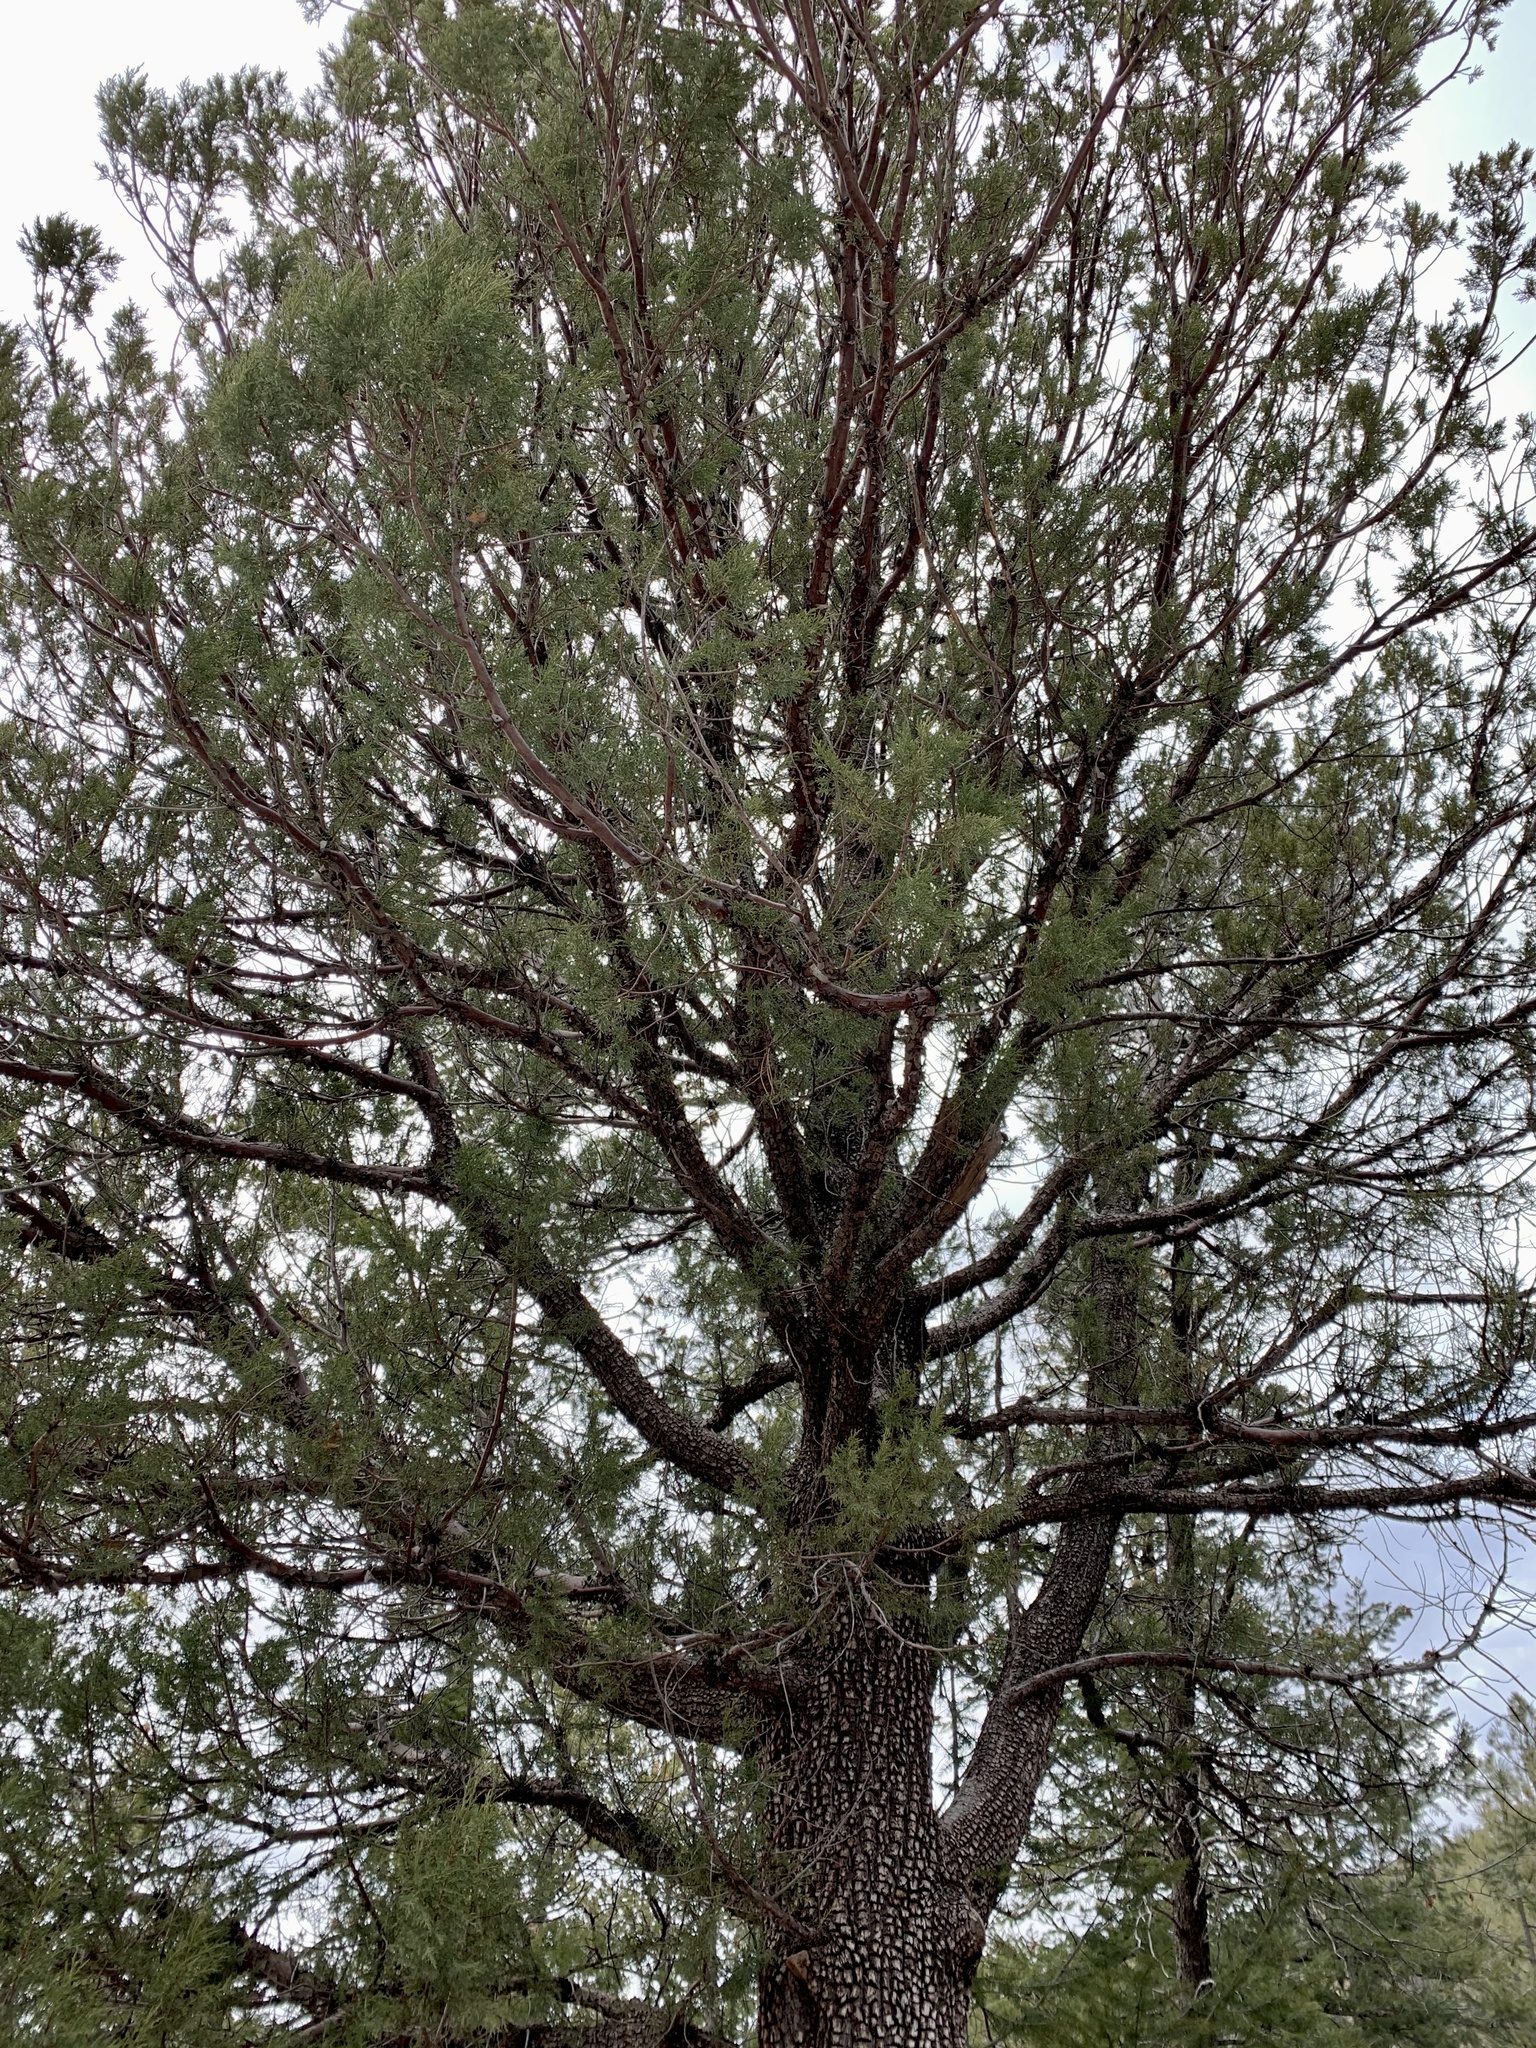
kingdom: Plantae
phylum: Tracheophyta
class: Pinopsida
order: Pinales
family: Cupressaceae
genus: Juniperus
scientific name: Juniperus deppeana
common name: Alligator juniper
